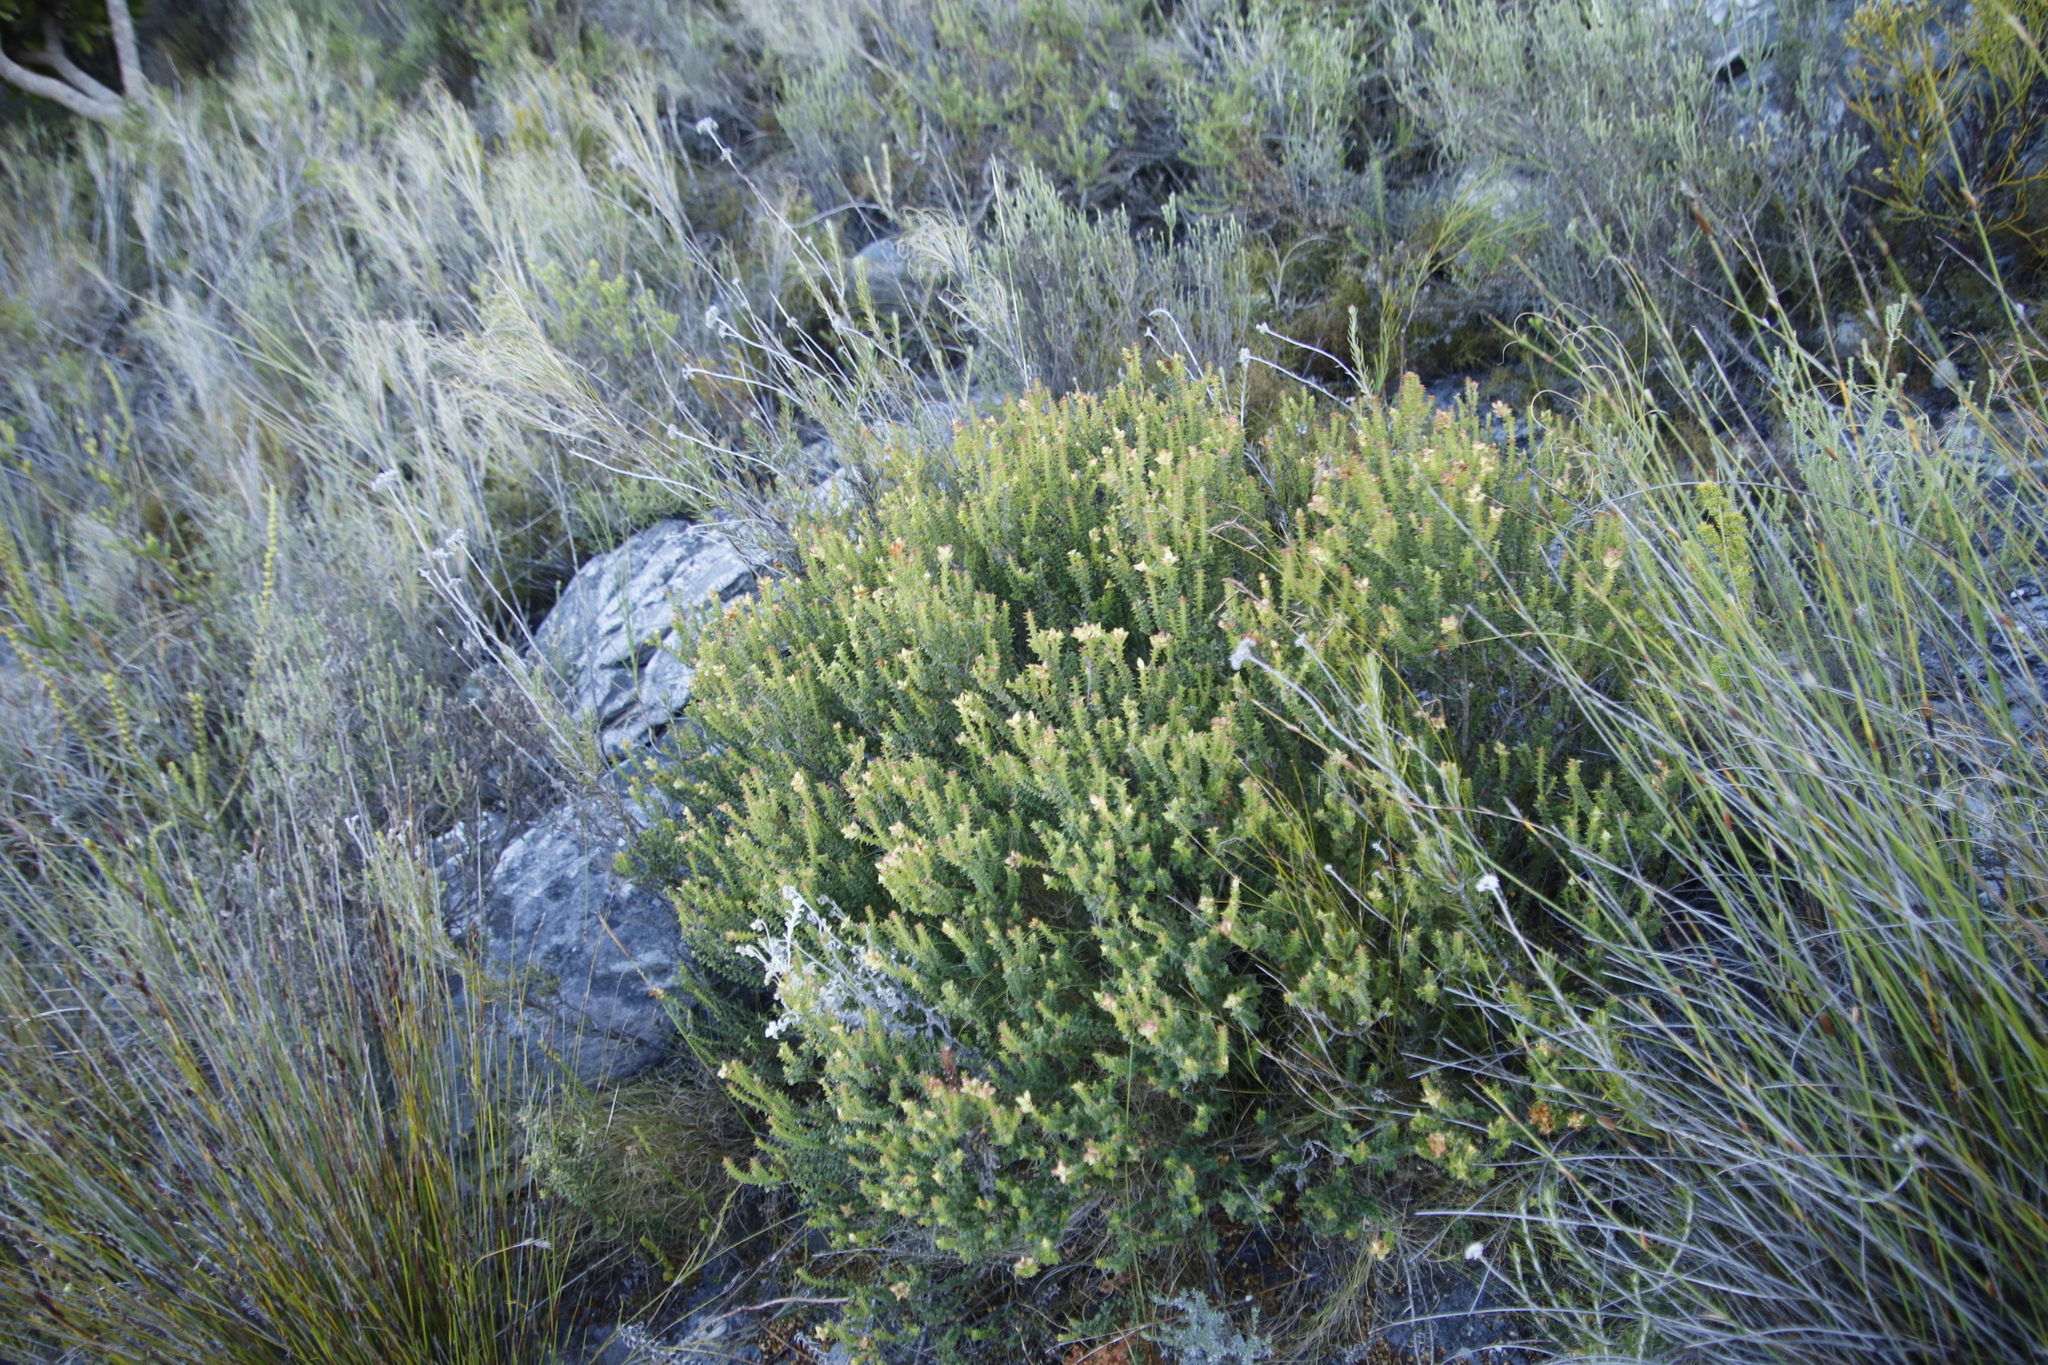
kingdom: Plantae
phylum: Tracheophyta
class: Magnoliopsida
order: Myrtales
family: Penaeaceae
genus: Penaea
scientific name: Penaea mucronata
